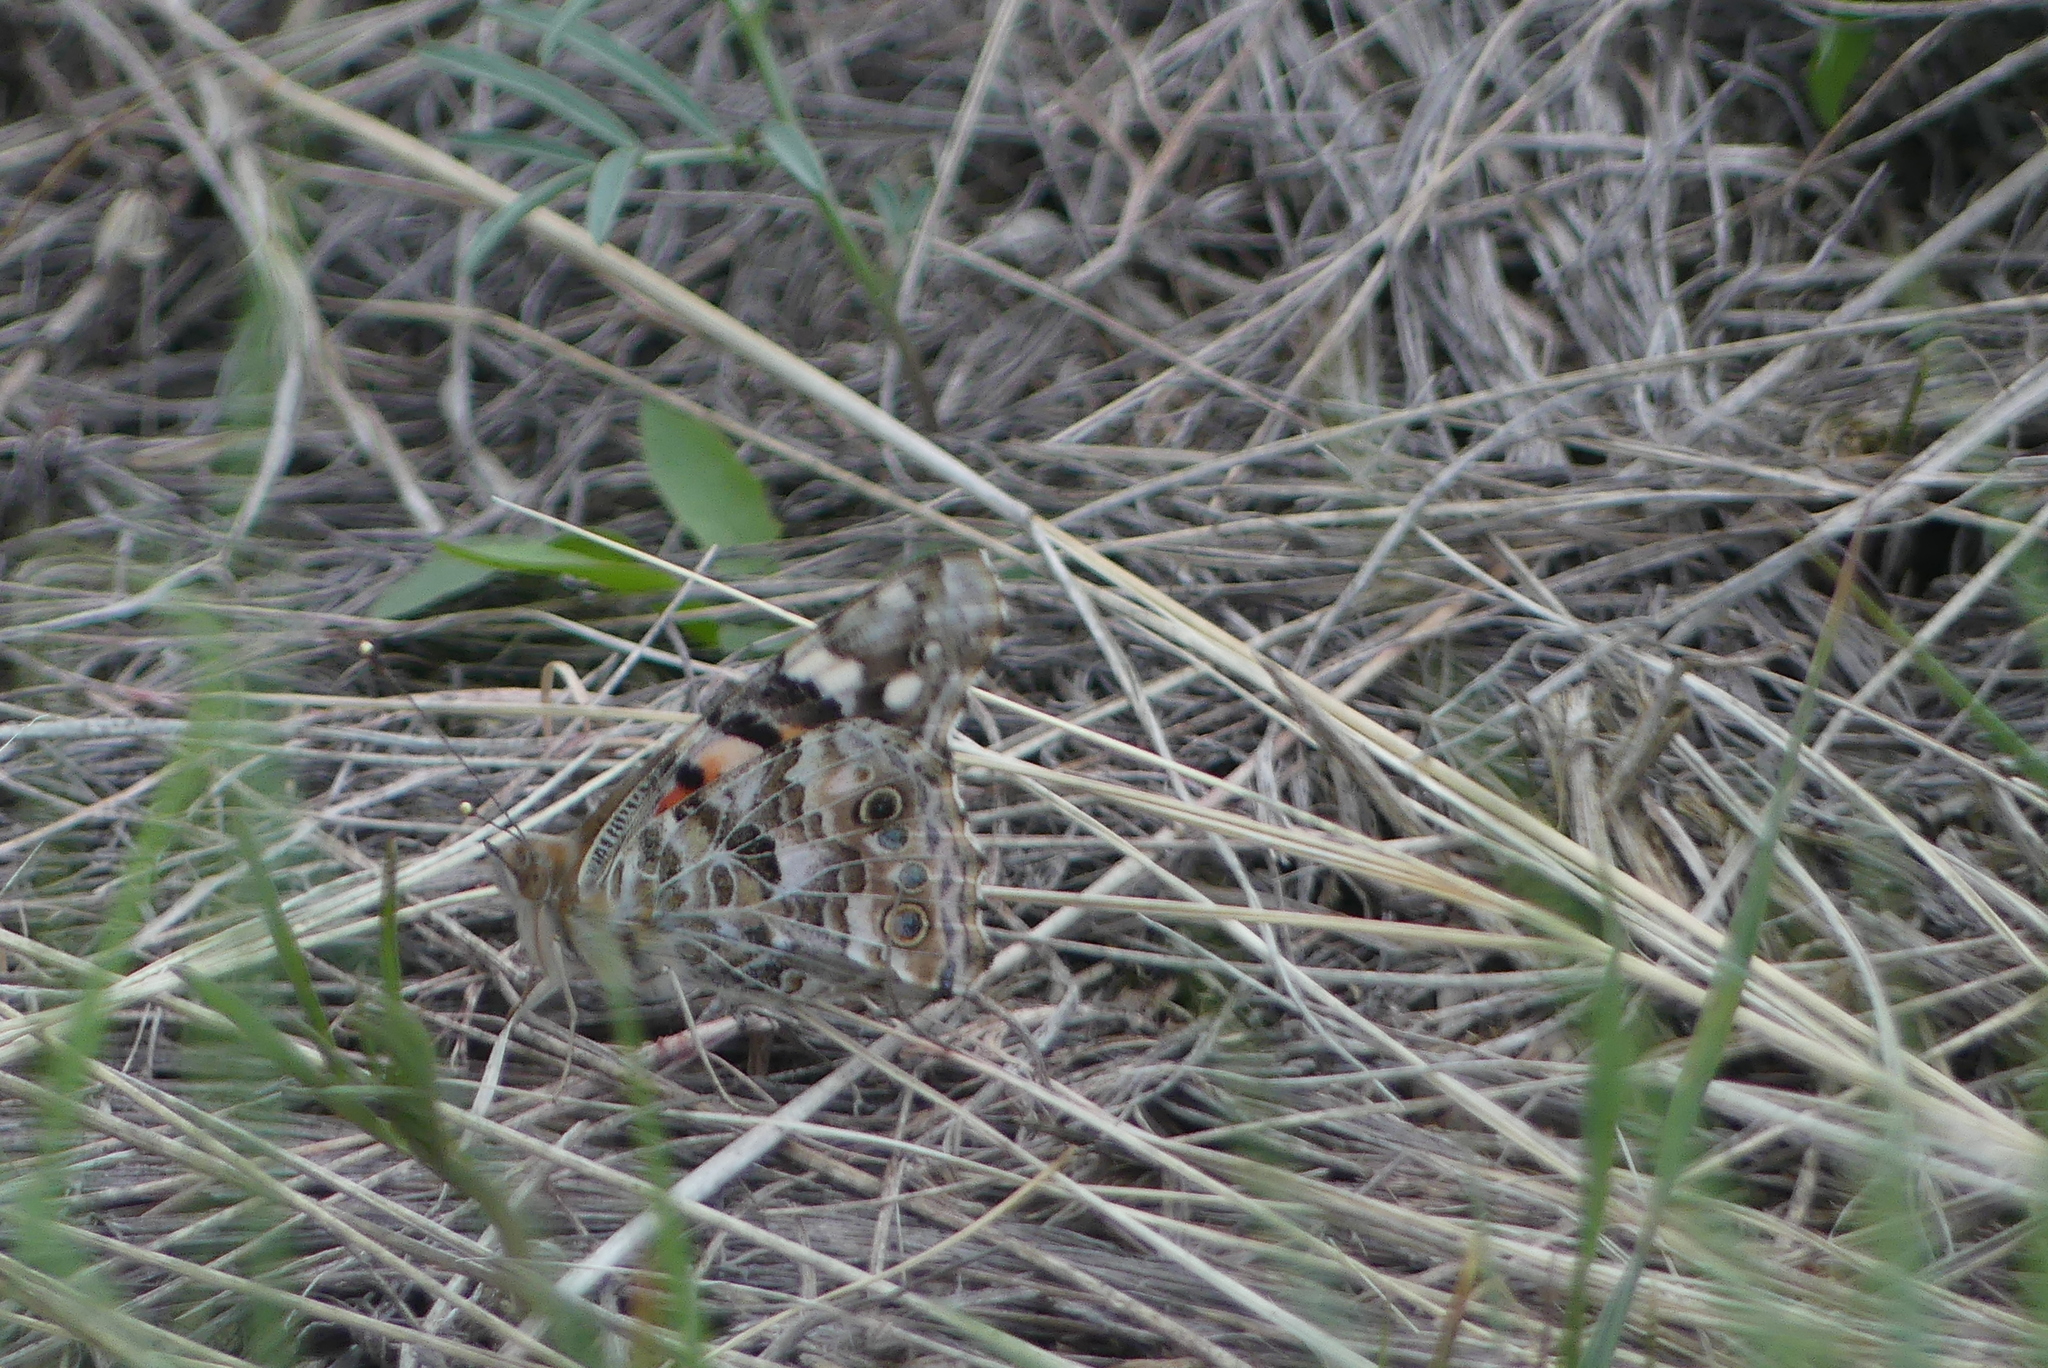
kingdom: Animalia
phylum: Arthropoda
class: Insecta
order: Lepidoptera
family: Nymphalidae
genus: Vanessa
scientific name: Vanessa cardui
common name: Painted lady
